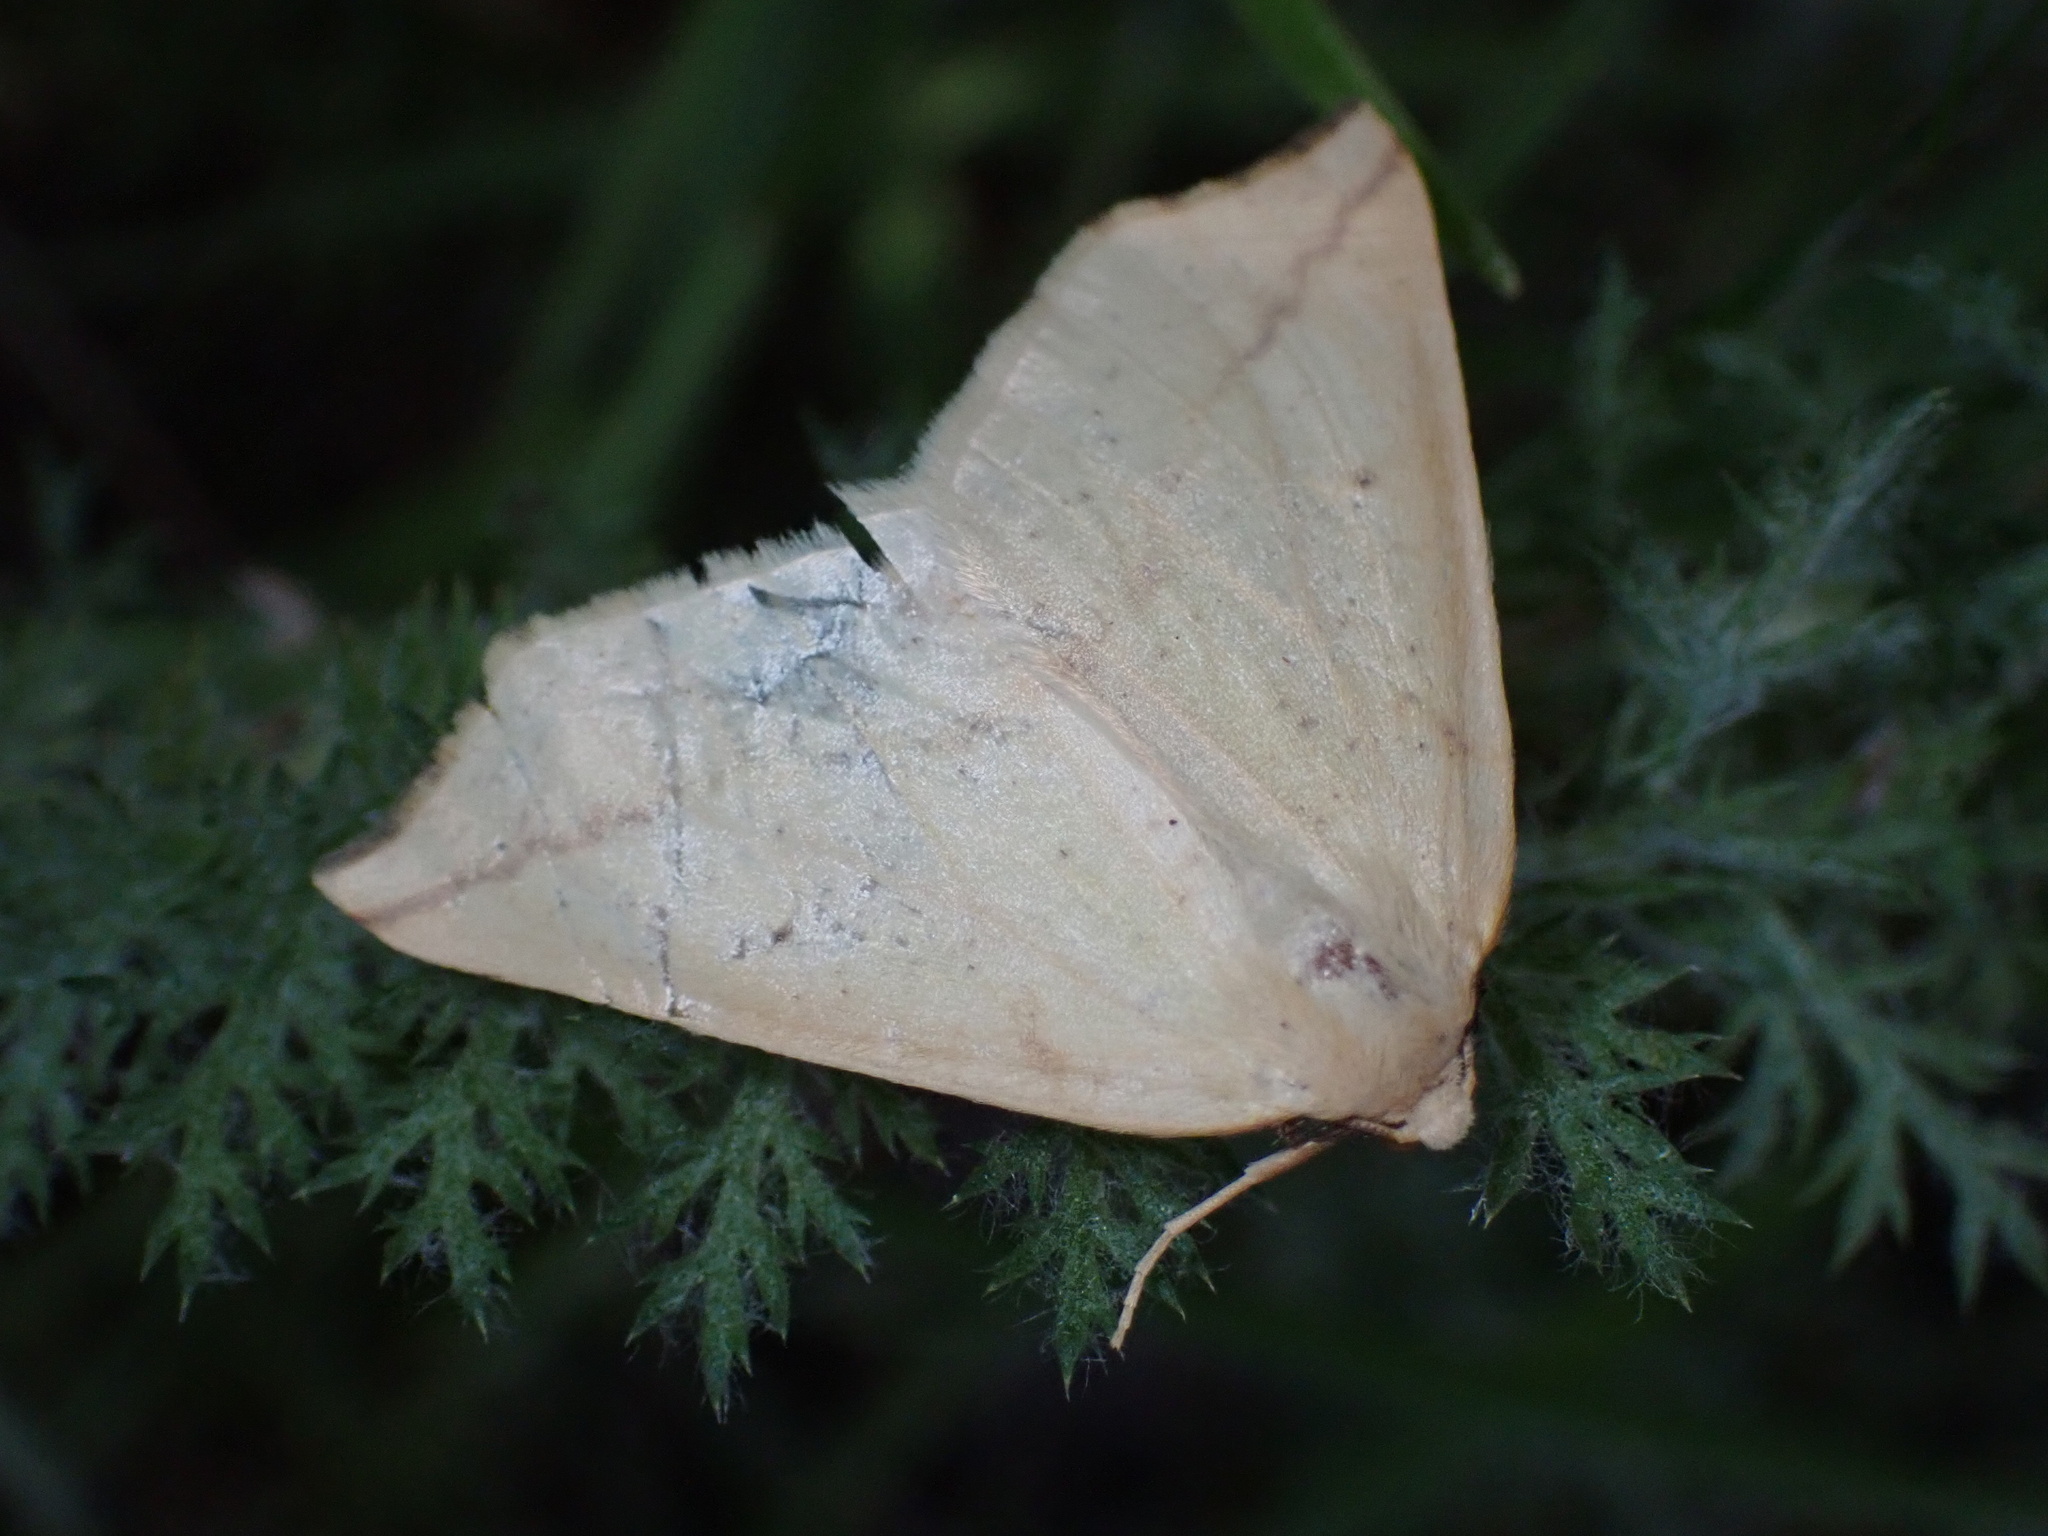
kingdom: Animalia
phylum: Arthropoda
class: Insecta
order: Lepidoptera
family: Geometridae
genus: Neoterpes
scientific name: Neoterpes edwardsata
